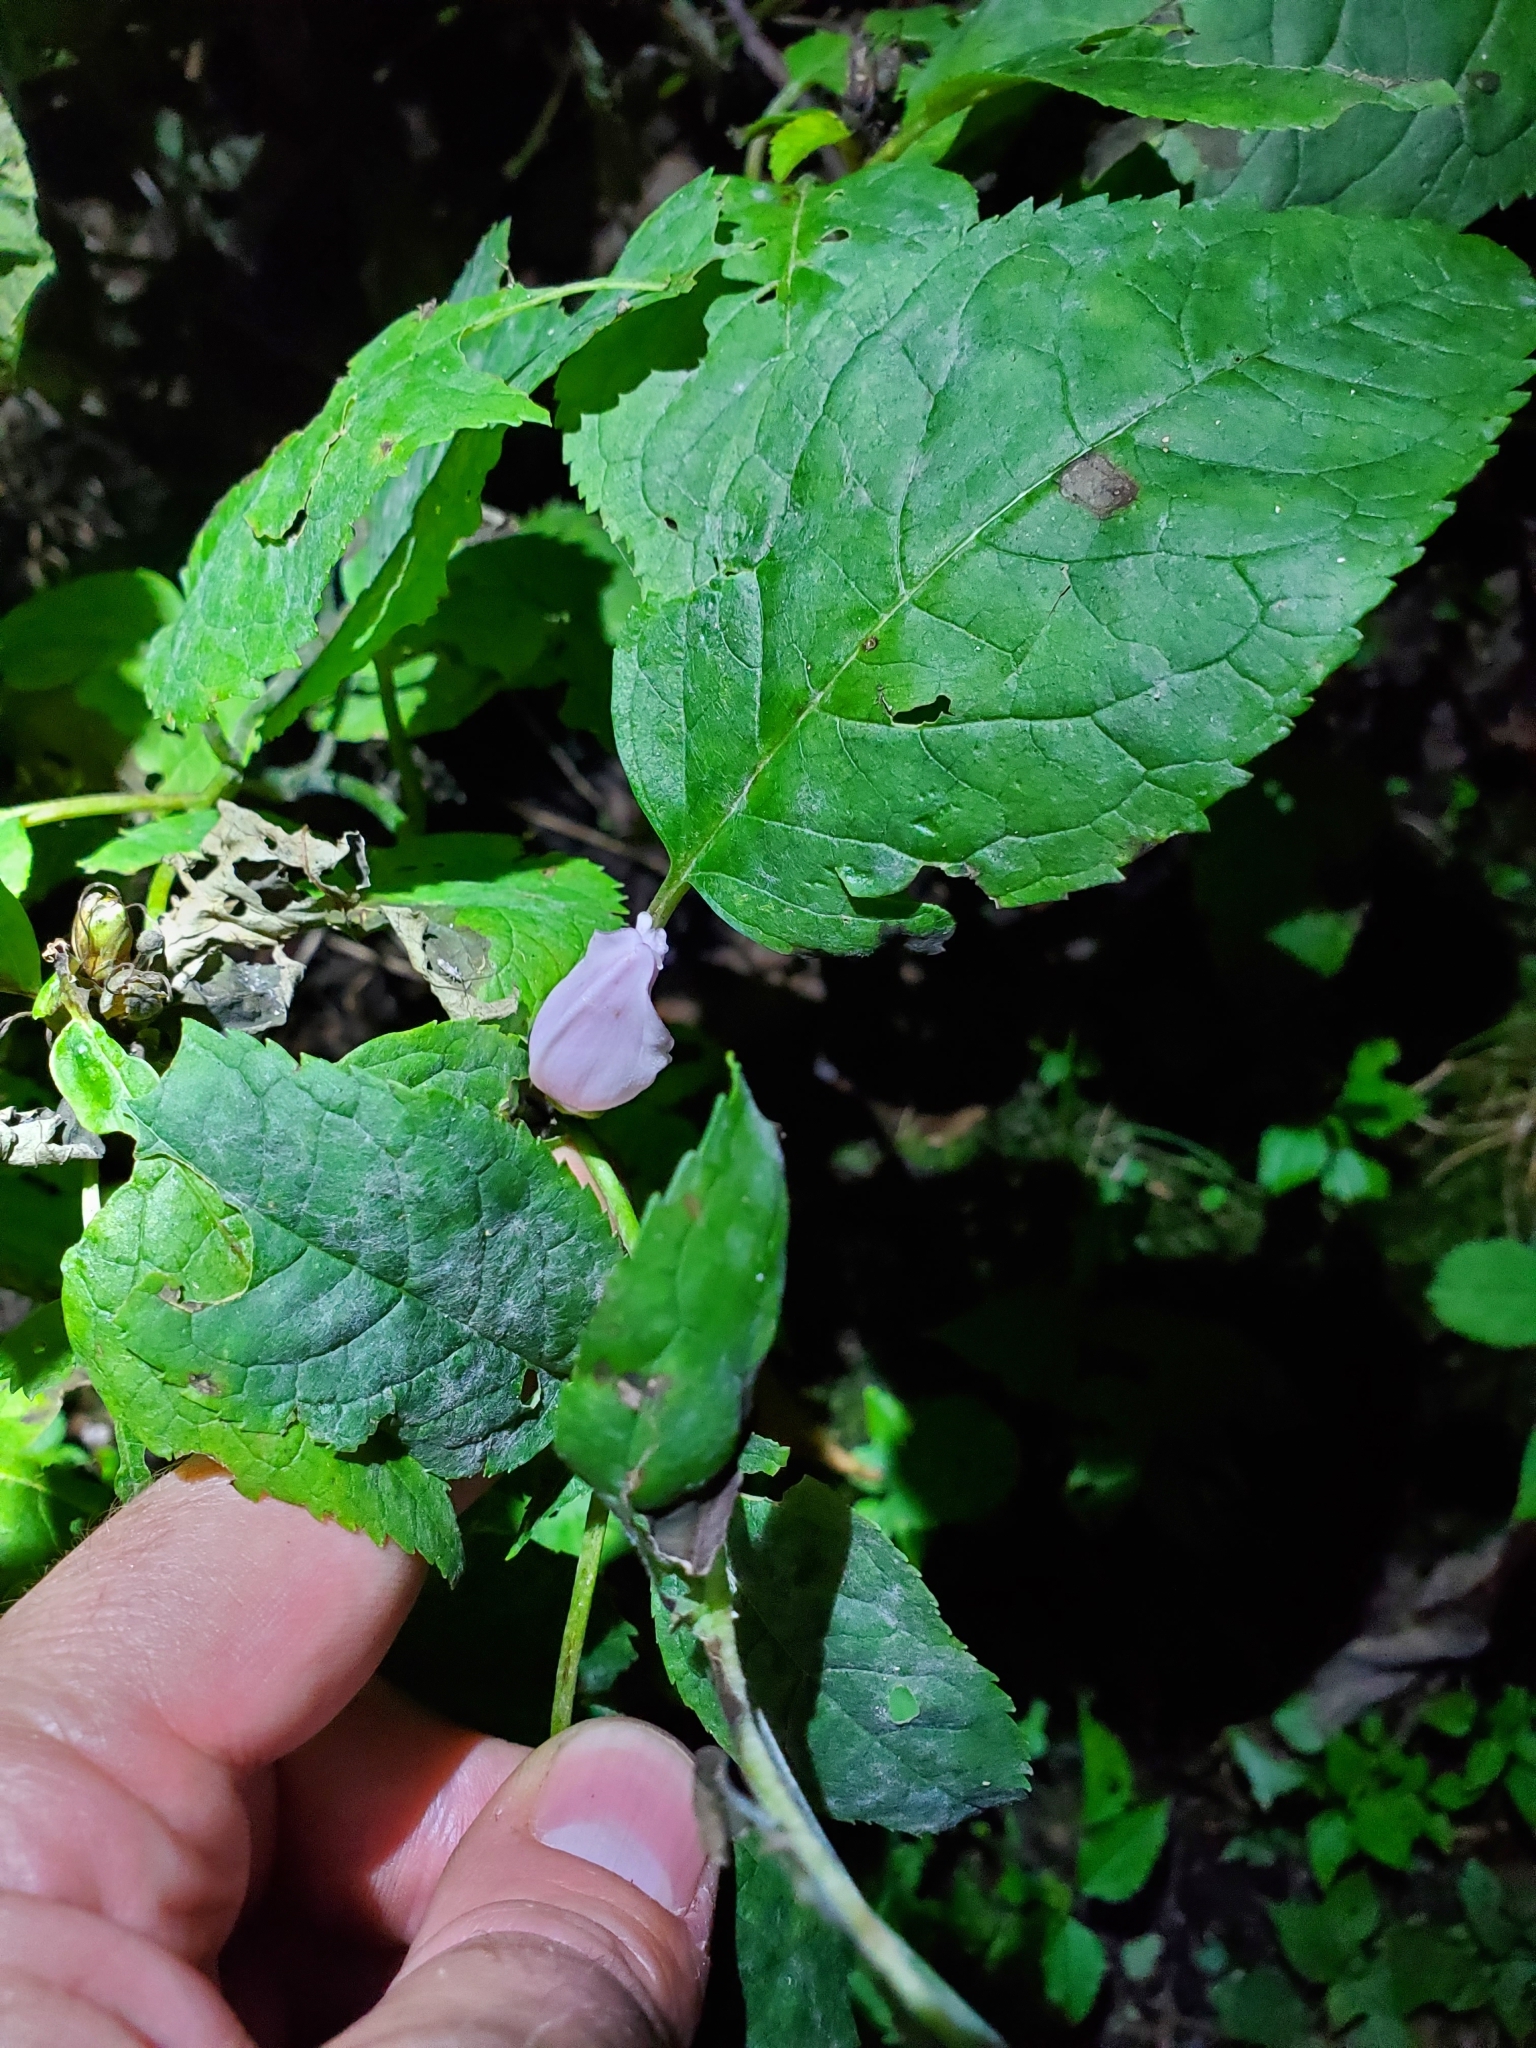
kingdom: Plantae
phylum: Tracheophyta
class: Magnoliopsida
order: Lamiales
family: Plantaginaceae
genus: Chelone
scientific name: Chelone lyonii
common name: Pink turtlehead
